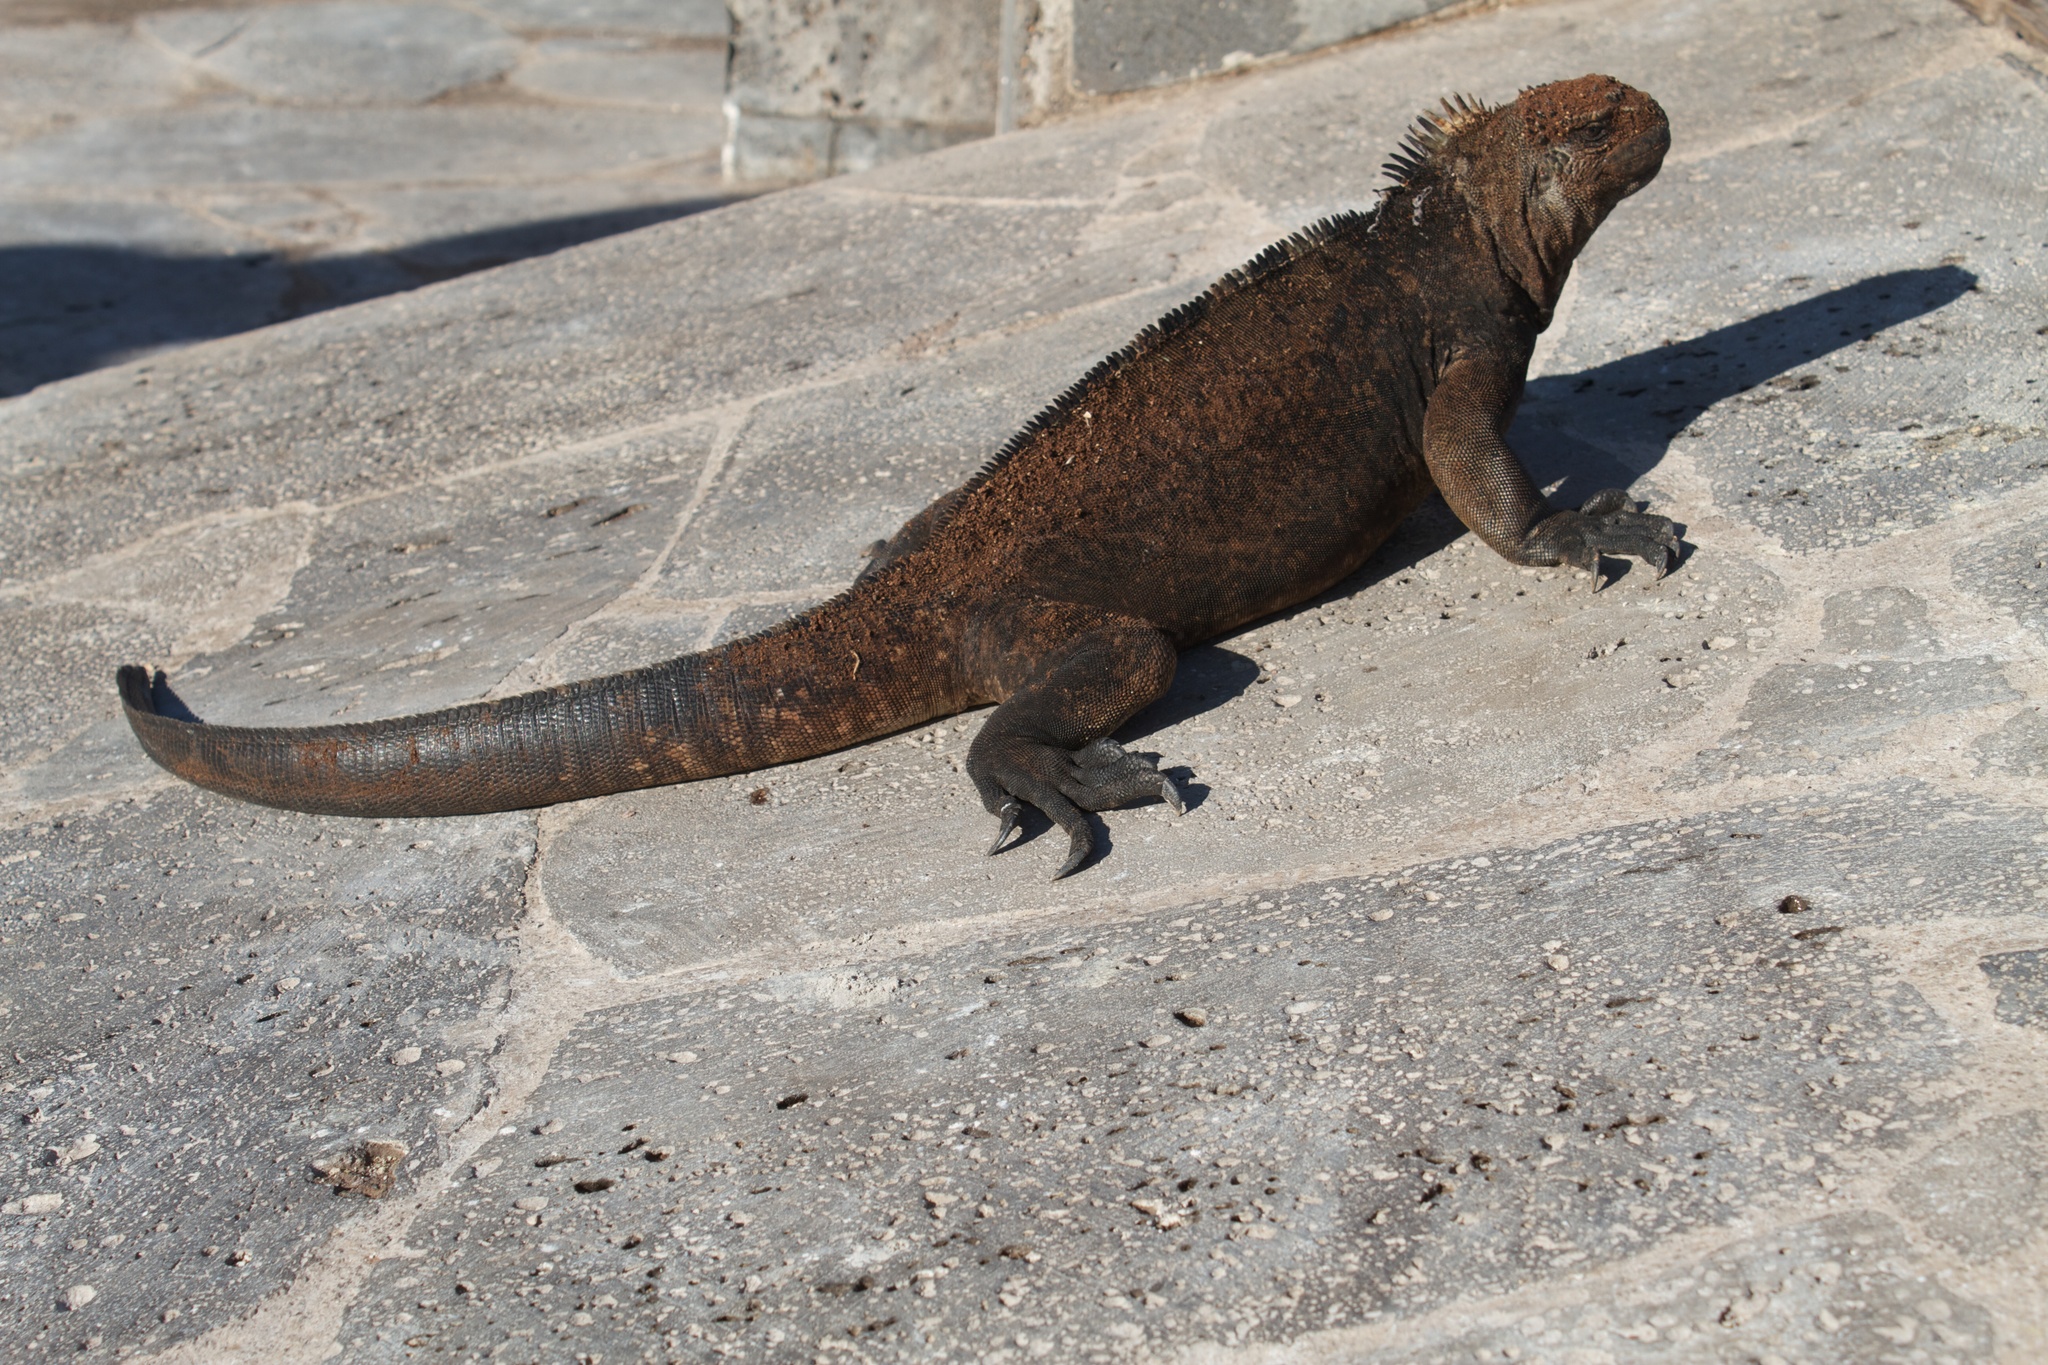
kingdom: Animalia
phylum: Chordata
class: Squamata
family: Iguanidae
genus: Amblyrhynchus
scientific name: Amblyrhynchus cristatus
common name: Marine iguana
